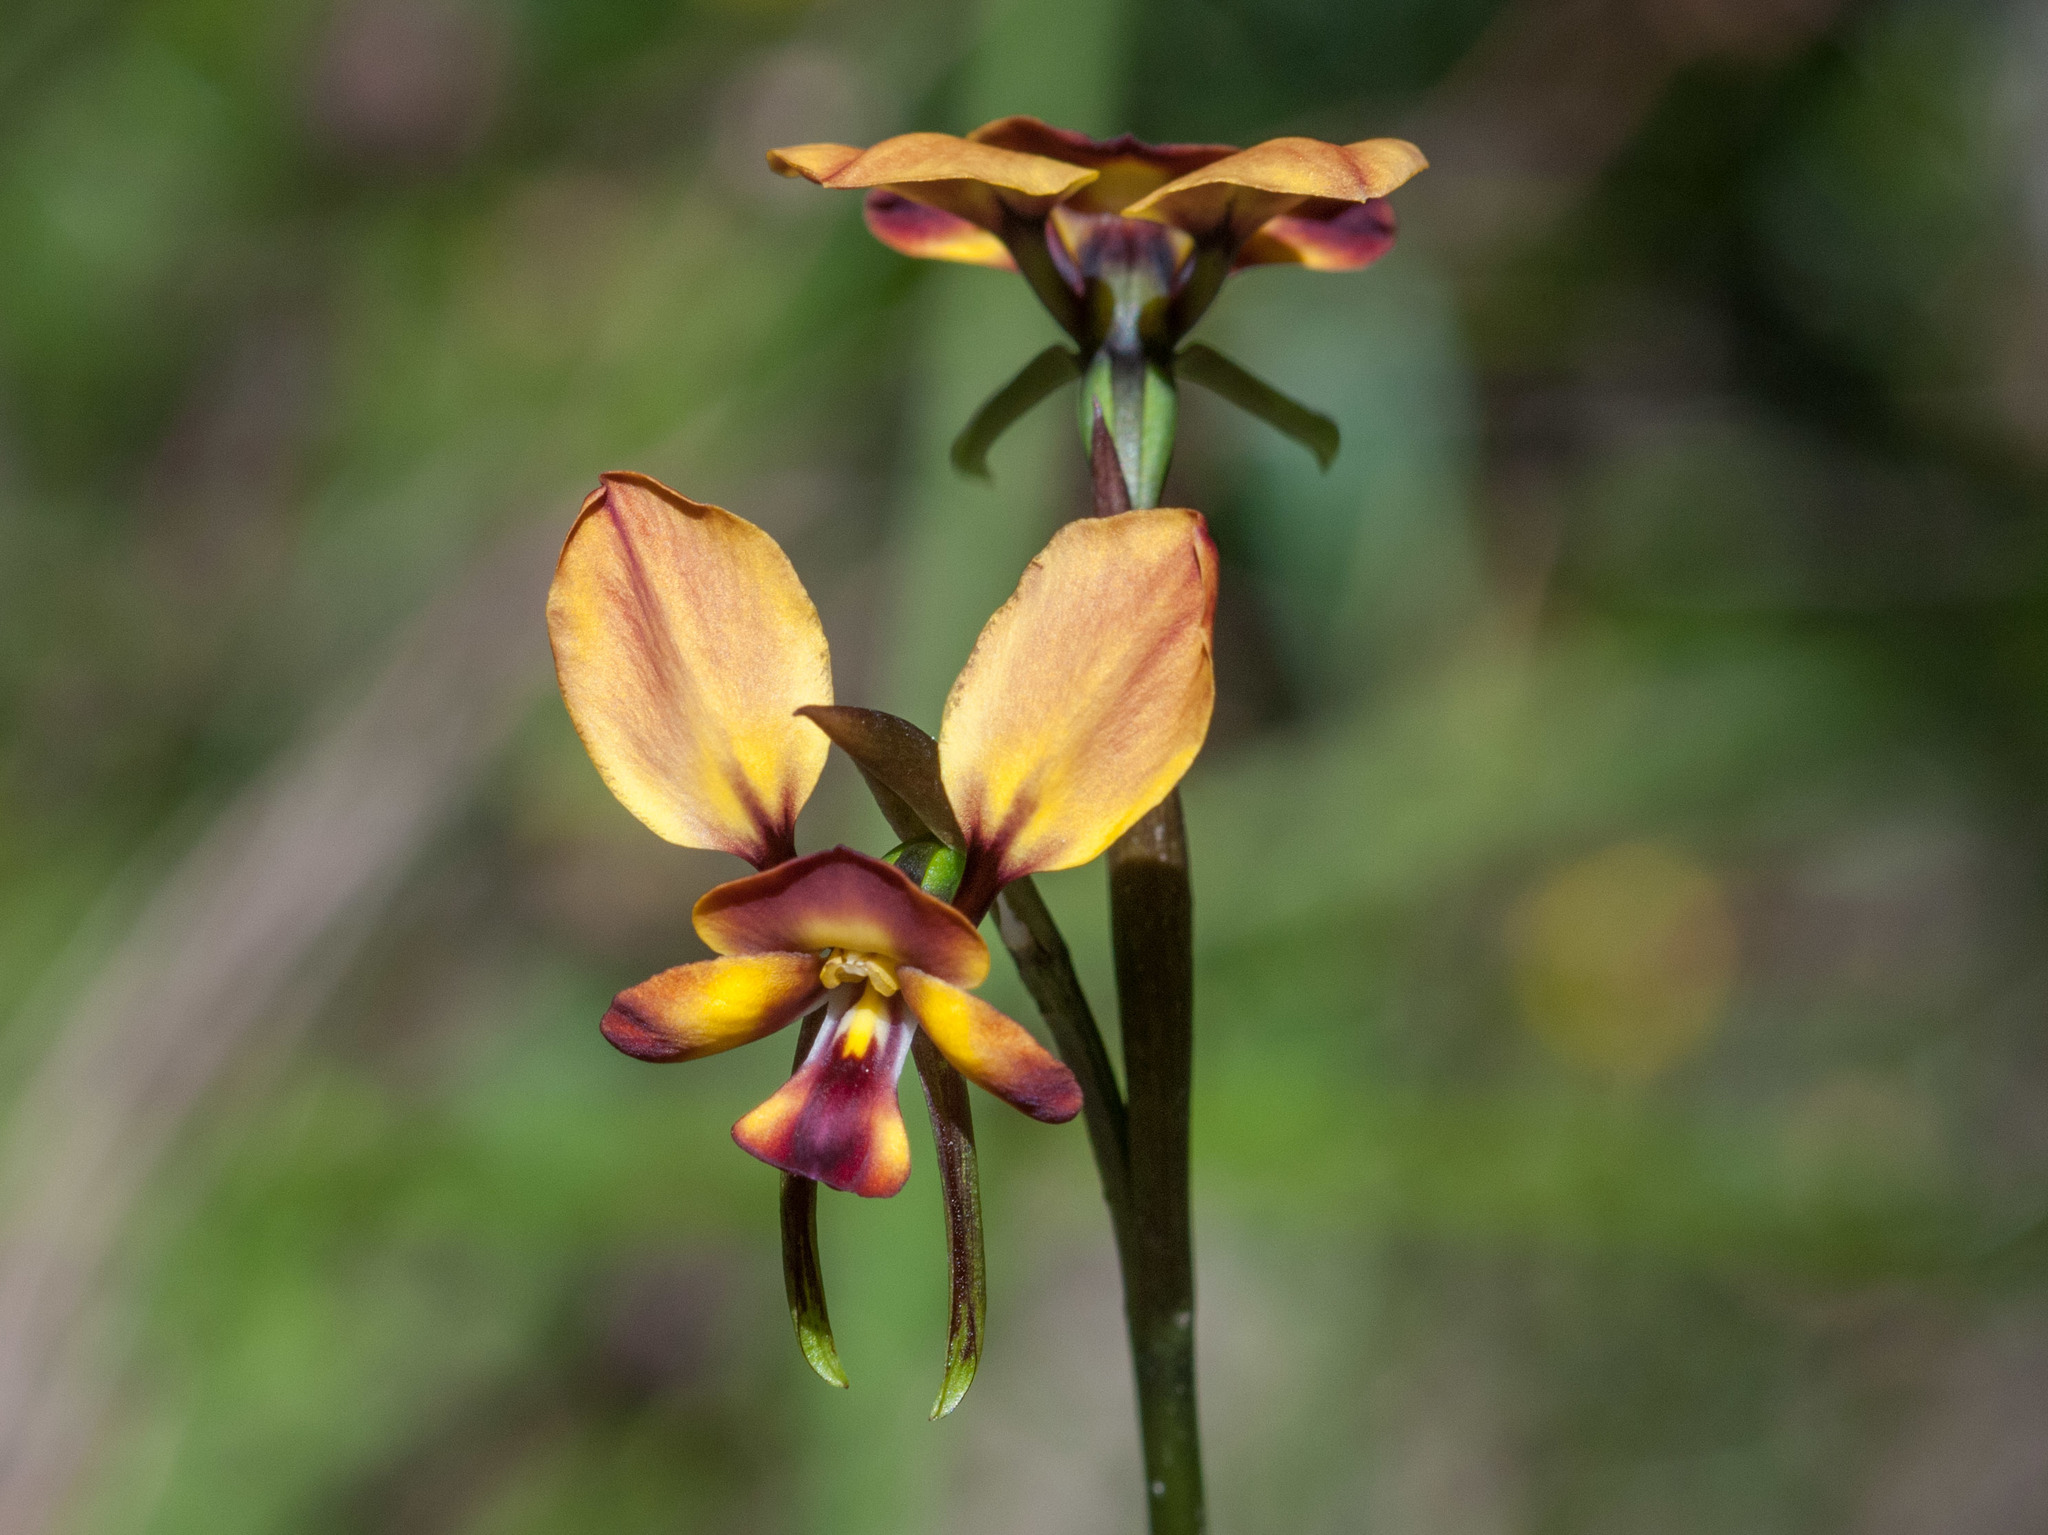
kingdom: Plantae
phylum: Tracheophyta
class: Liliopsida
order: Asparagales
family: Orchidaceae
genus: Diuris
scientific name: Diuris orientis
